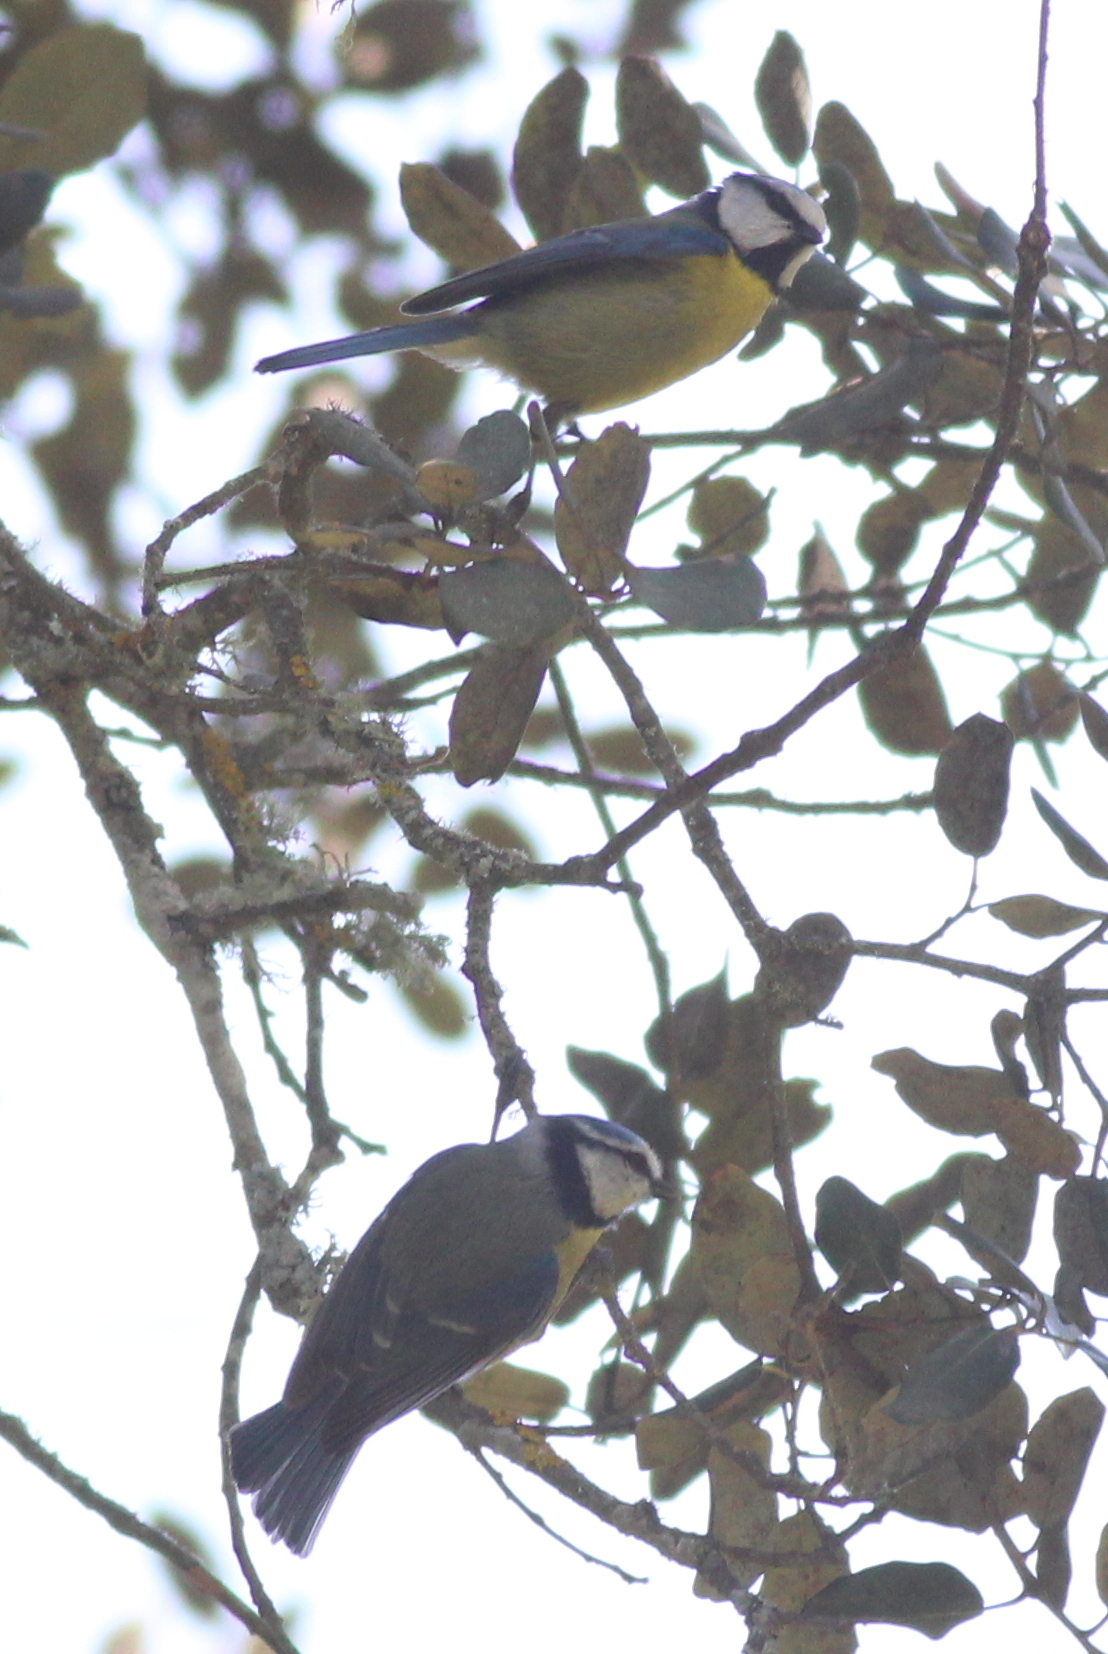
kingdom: Animalia
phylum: Chordata
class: Aves
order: Passeriformes
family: Paridae
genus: Cyanistes
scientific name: Cyanistes caeruleus
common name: Eurasian blue tit
